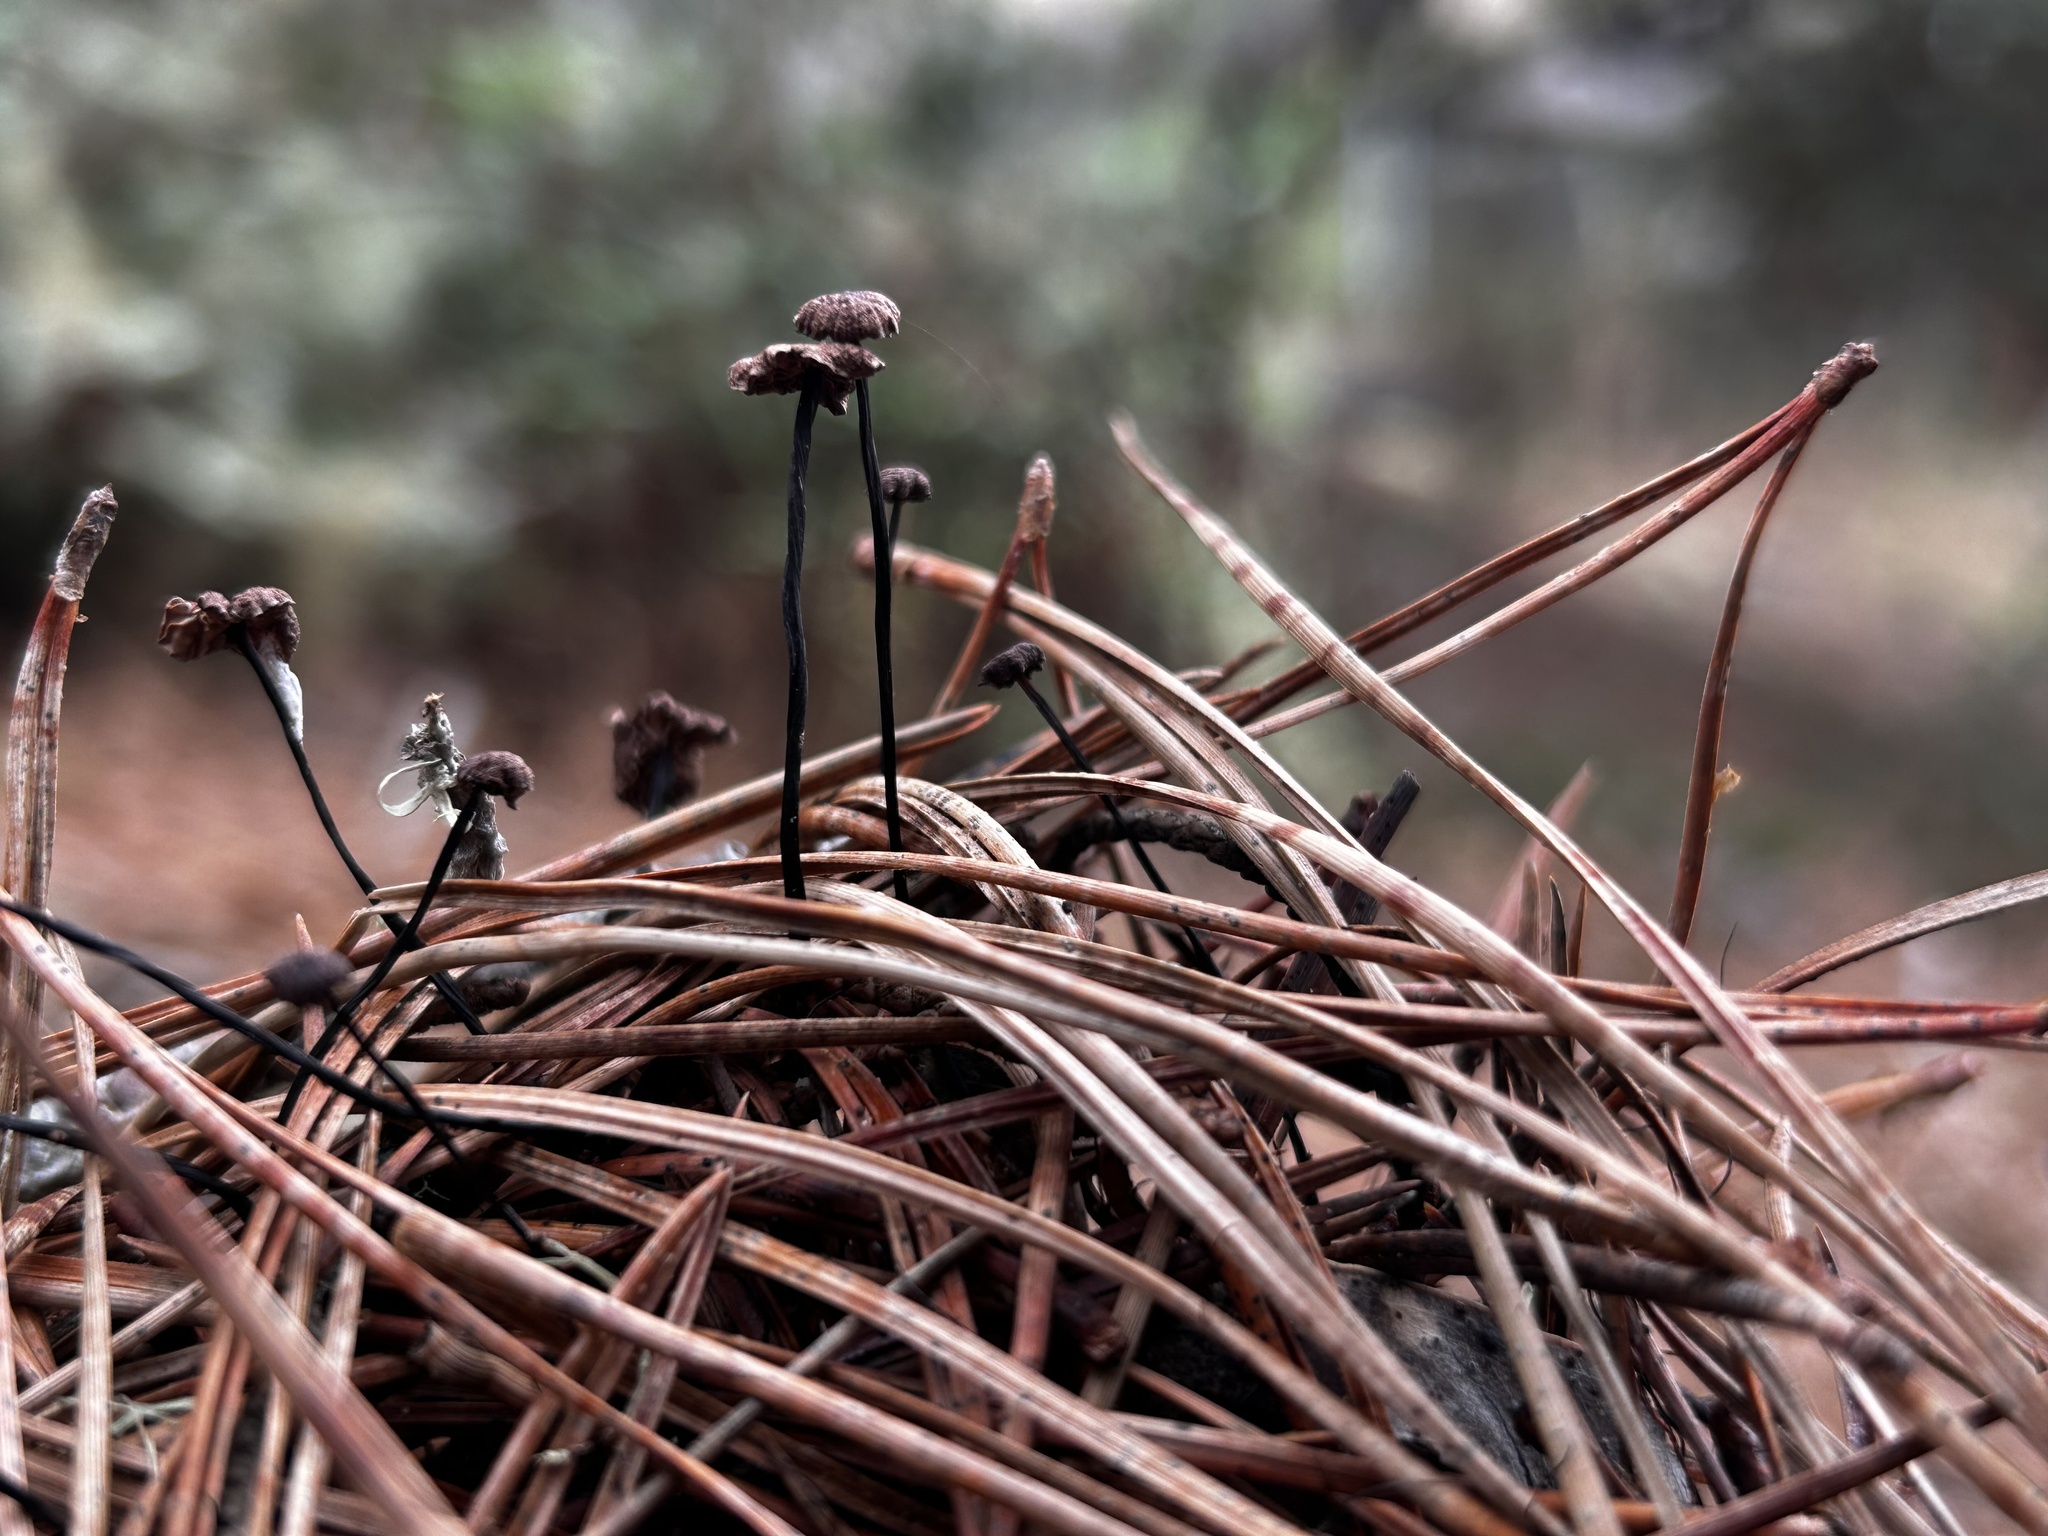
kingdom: Fungi
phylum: Basidiomycota
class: Agaricomycetes
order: Agaricales
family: Omphalotaceae
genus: Gymnopus
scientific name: Gymnopus androsaceus
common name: Horse-hair fungus
